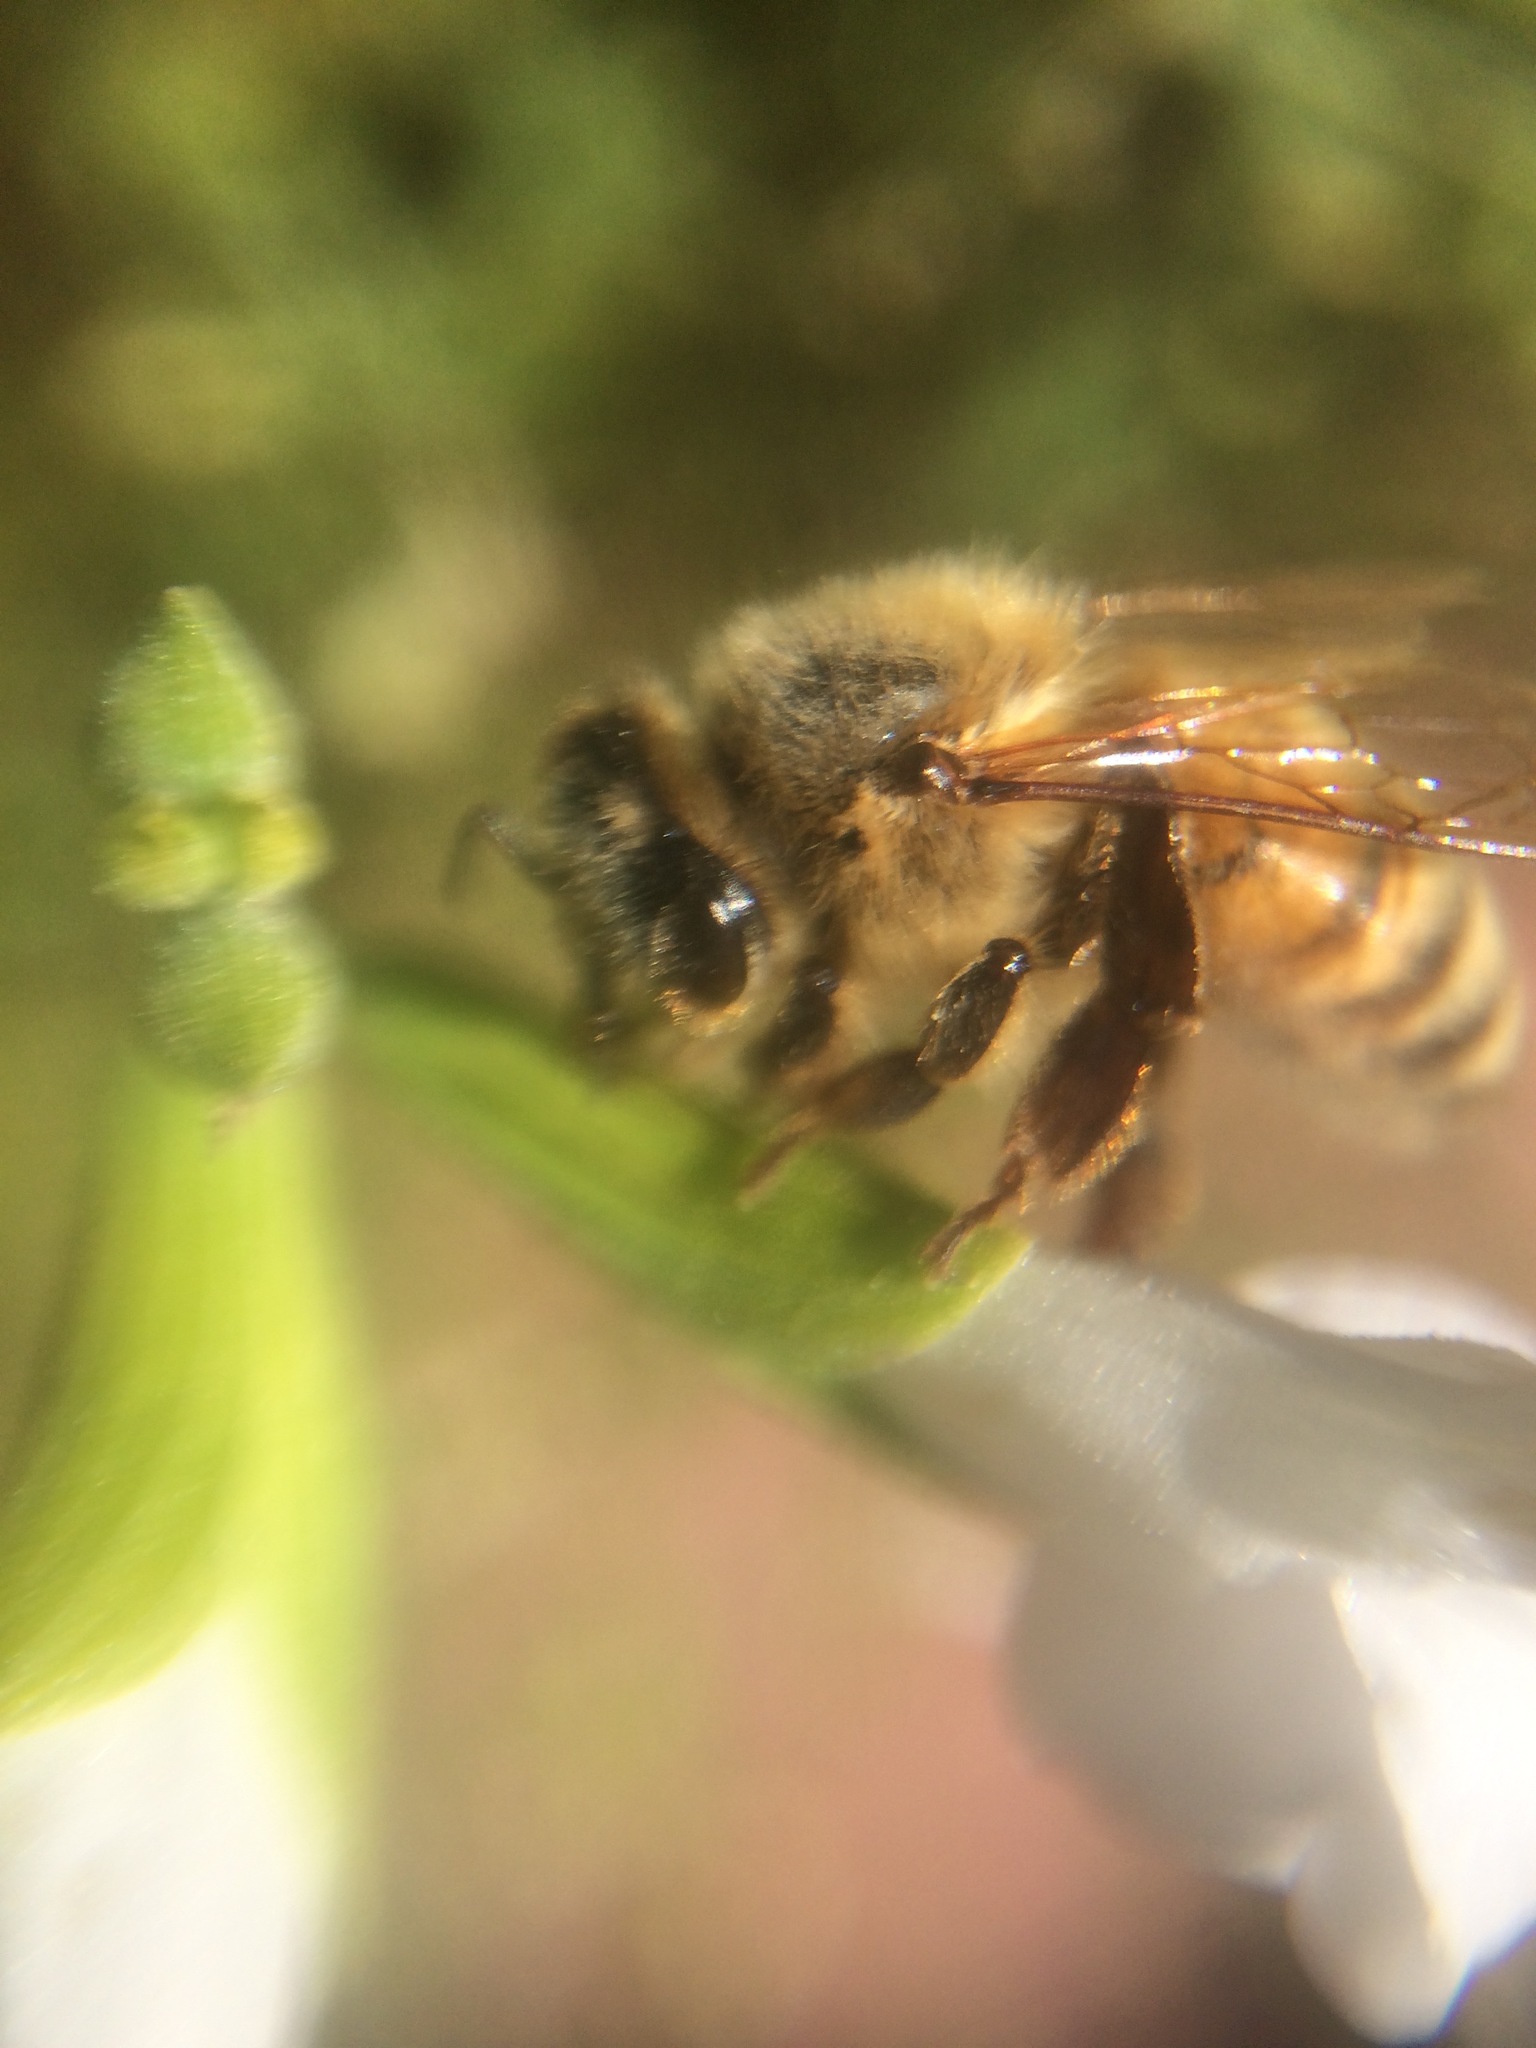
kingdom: Animalia
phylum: Arthropoda
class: Insecta
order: Hymenoptera
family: Apidae
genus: Apis
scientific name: Apis mellifera
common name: Honey bee
